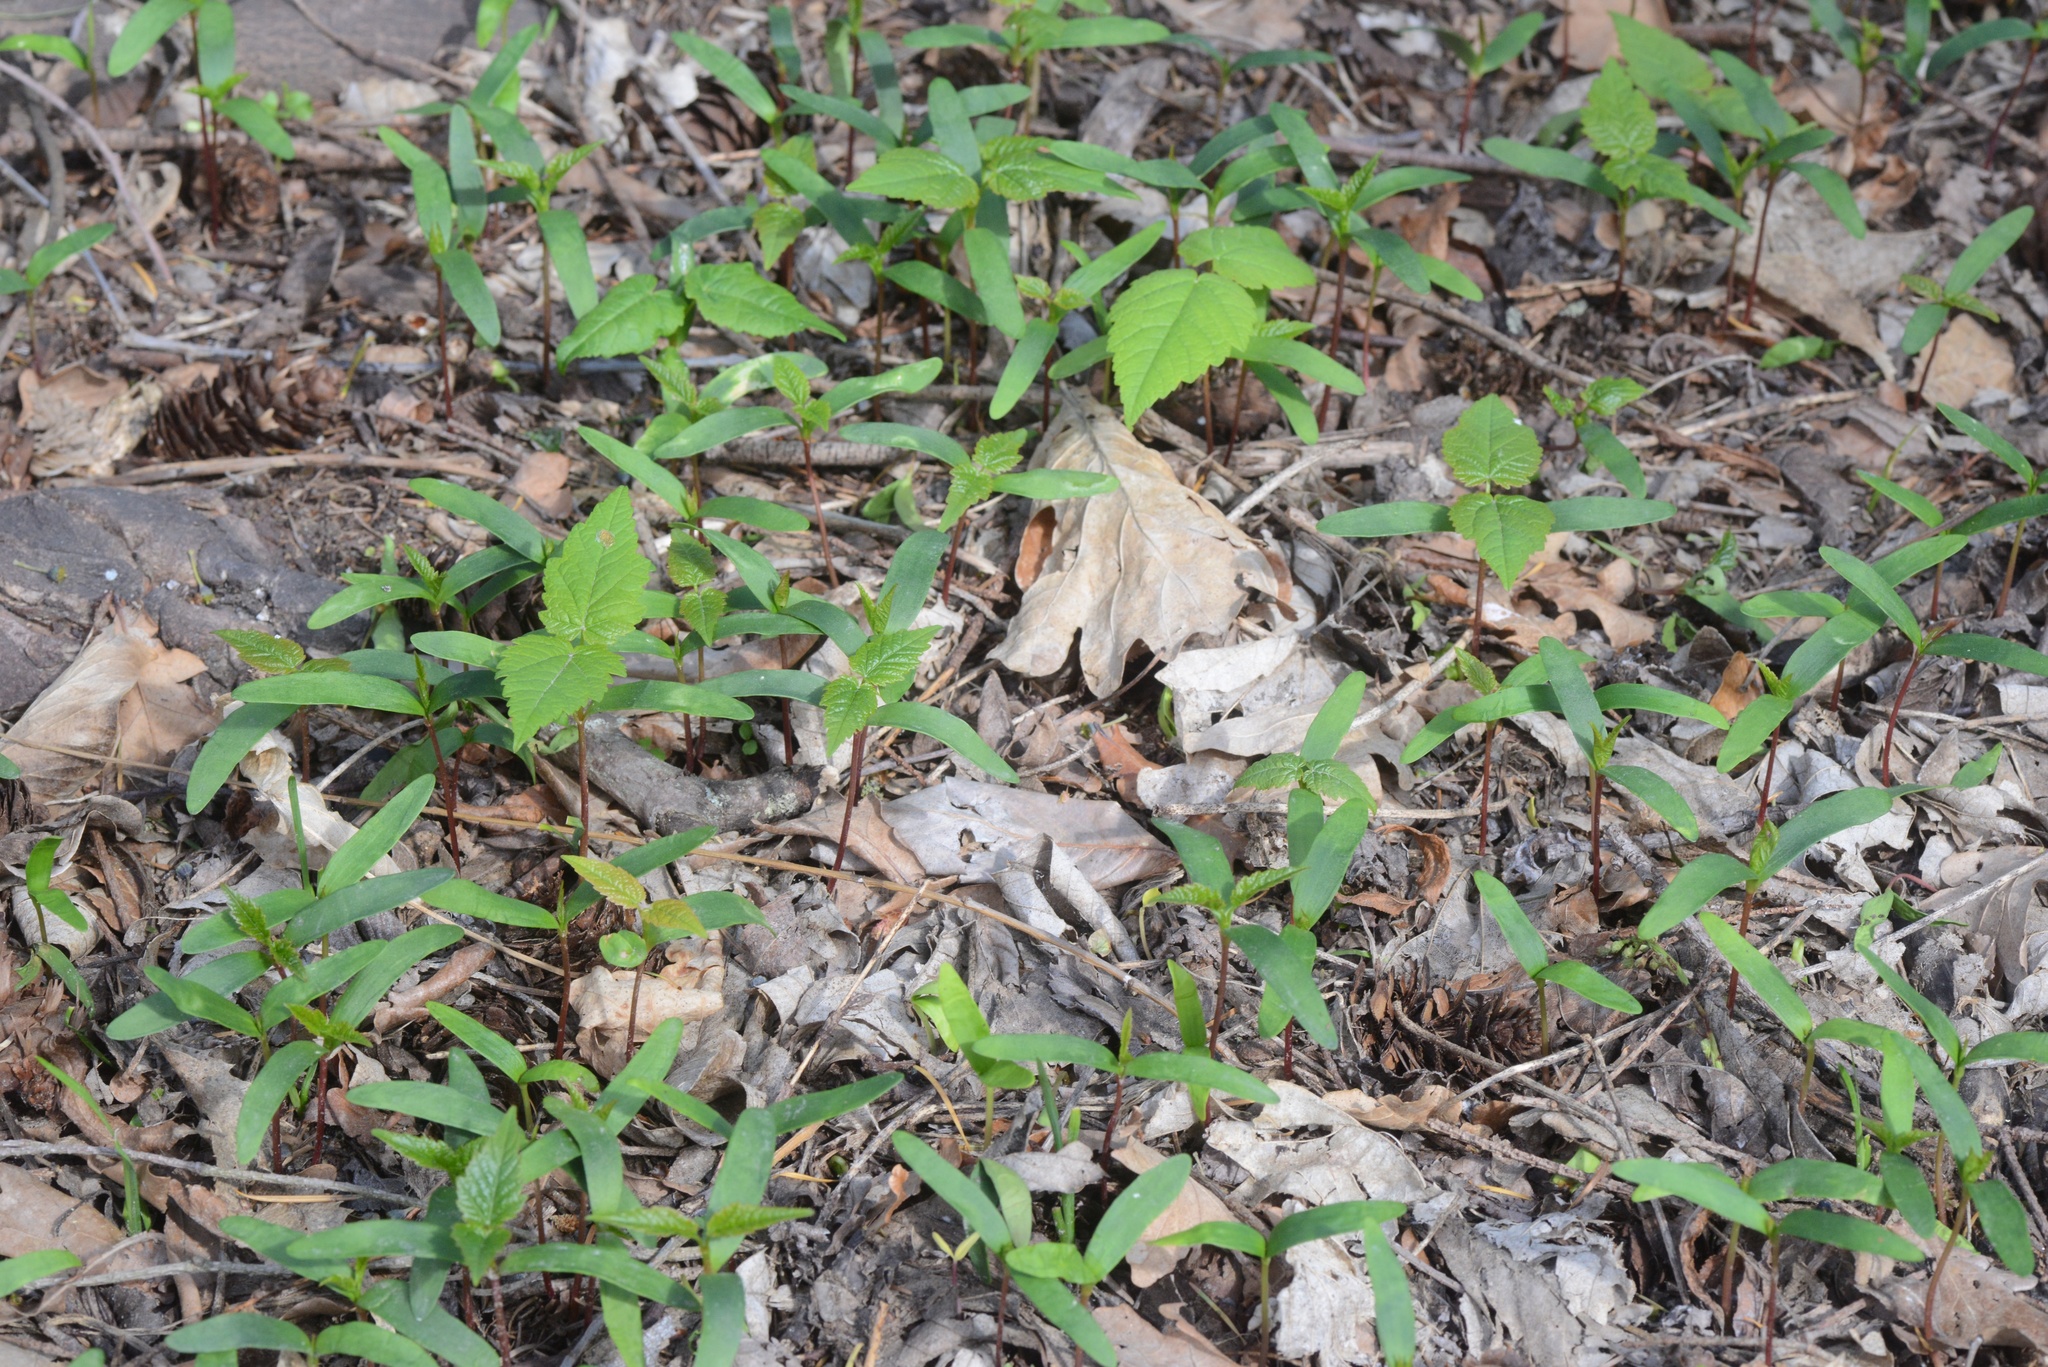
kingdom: Plantae
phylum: Tracheophyta
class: Magnoliopsida
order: Sapindales
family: Sapindaceae
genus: Acer
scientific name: Acer pseudoplatanus
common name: Sycamore
